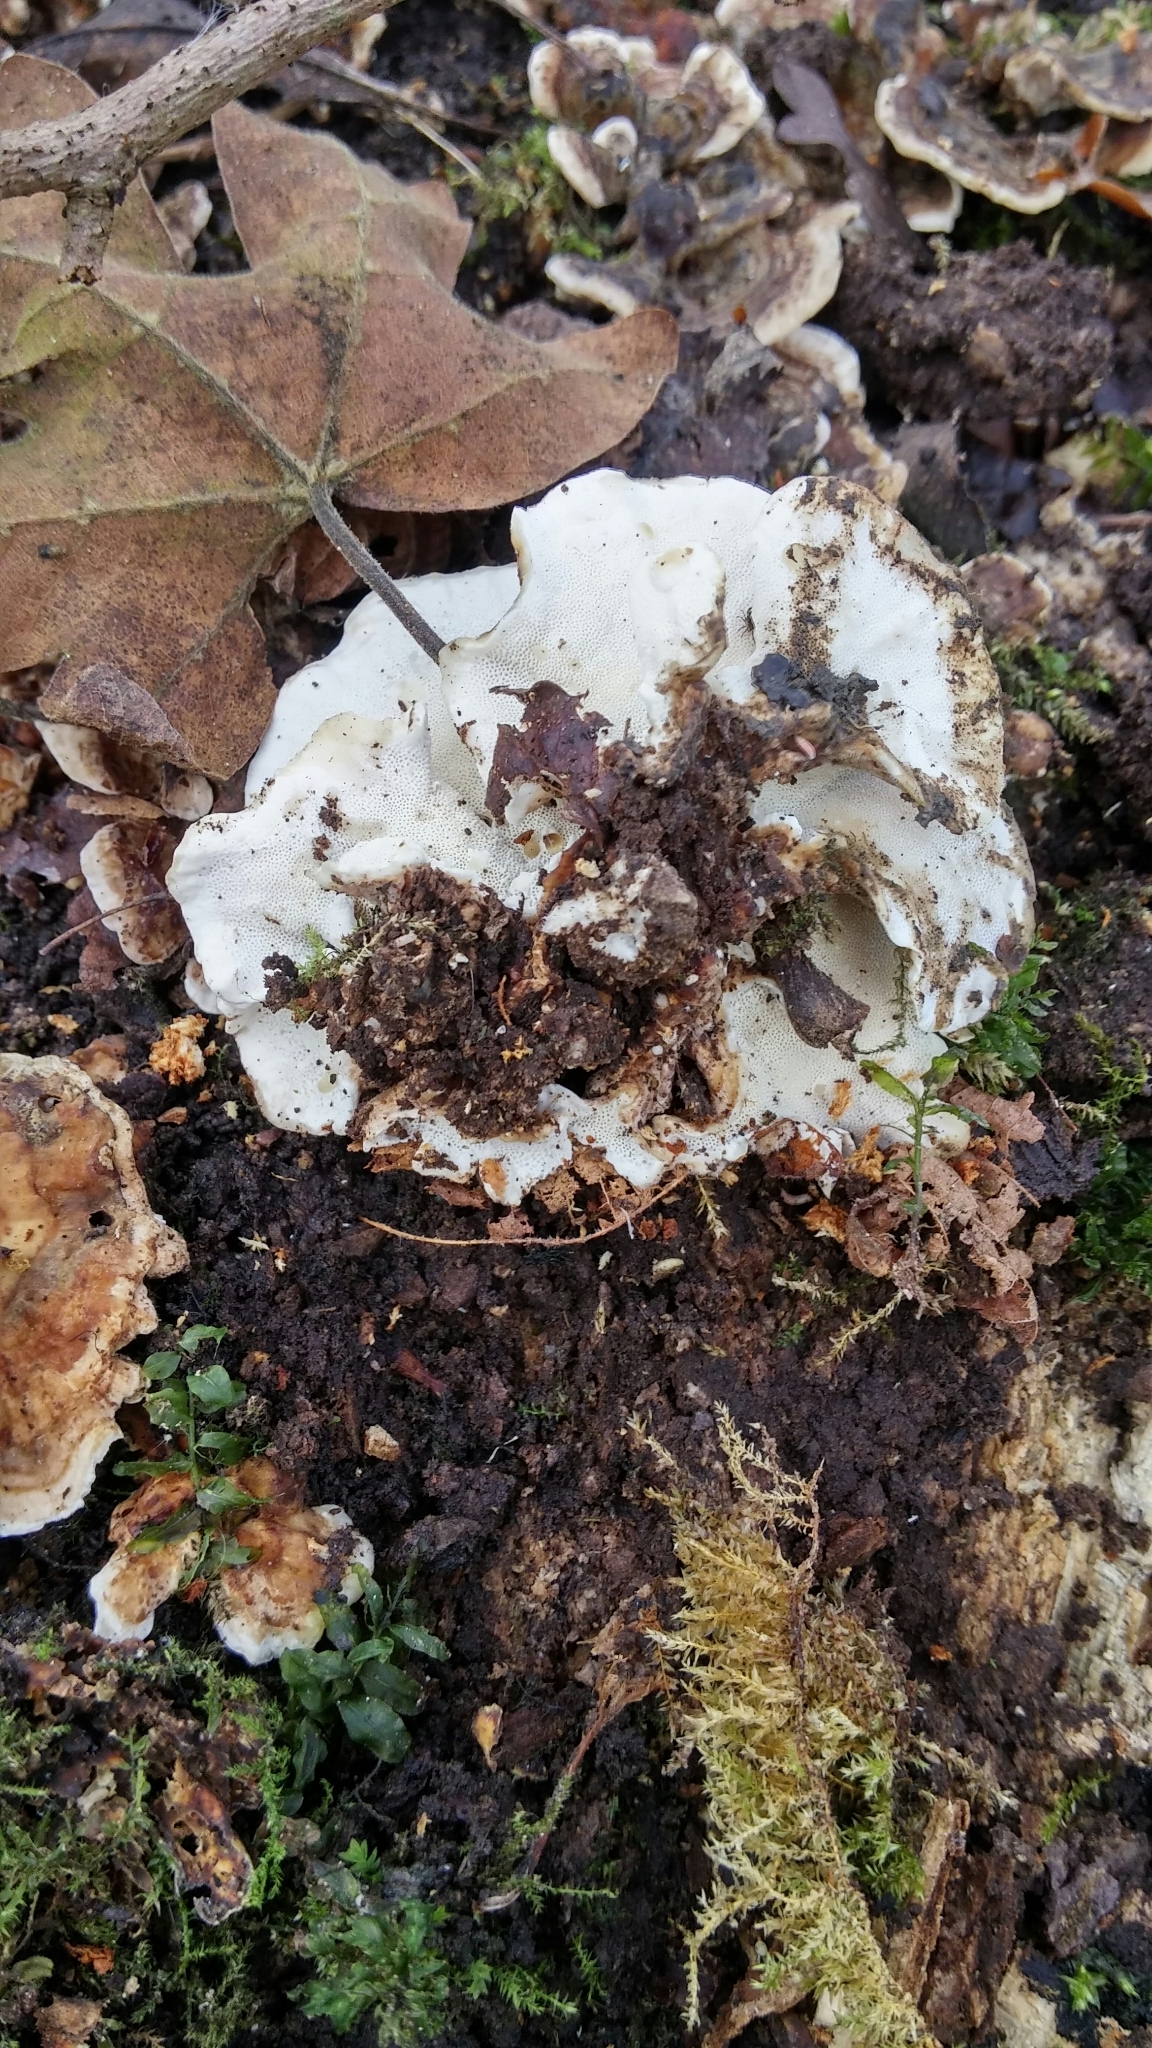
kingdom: Fungi
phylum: Basidiomycota
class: Agaricomycetes
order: Polyporales
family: Polyporaceae
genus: Trametes
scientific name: Trametes versicolor
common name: Turkeytail
